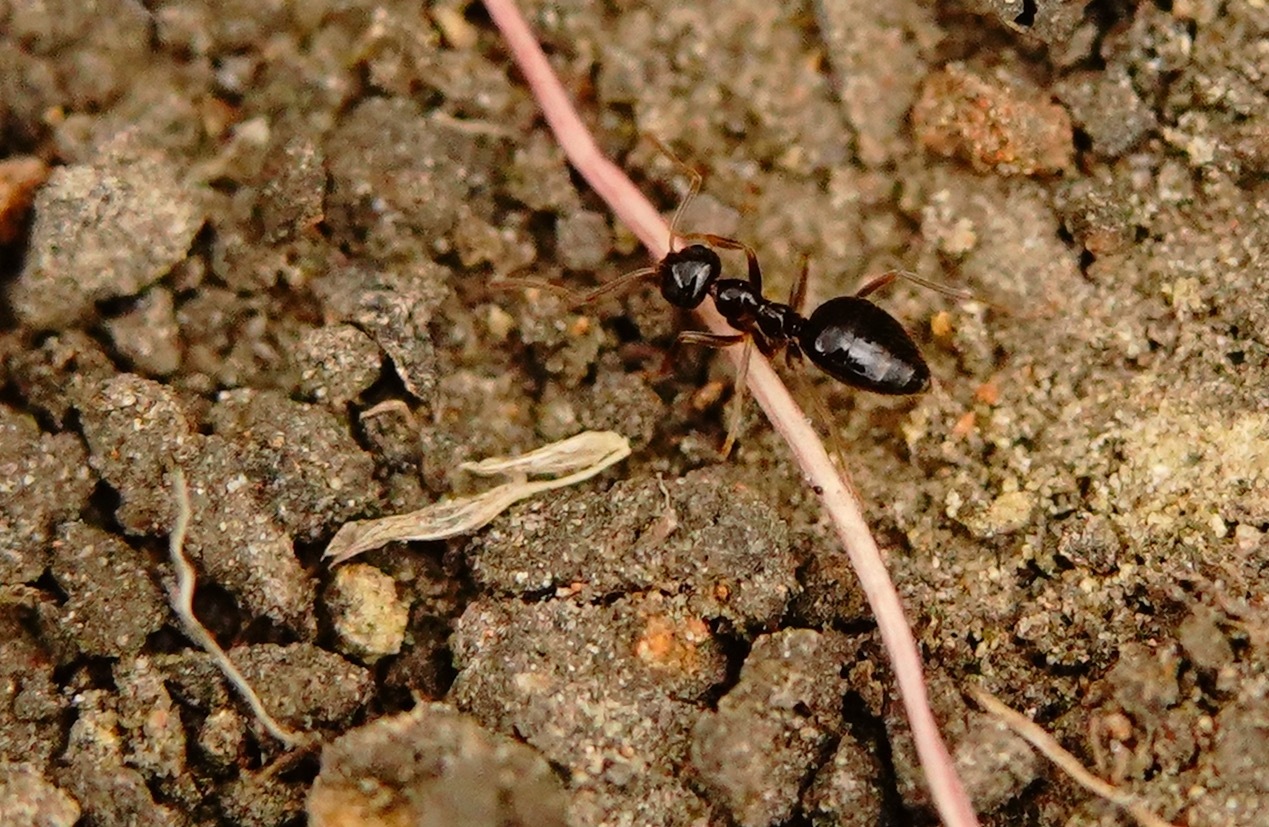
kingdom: Animalia
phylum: Arthropoda
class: Insecta
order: Hymenoptera
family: Formicidae
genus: Prenolepis
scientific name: Prenolepis imparis
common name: Small honey ant
